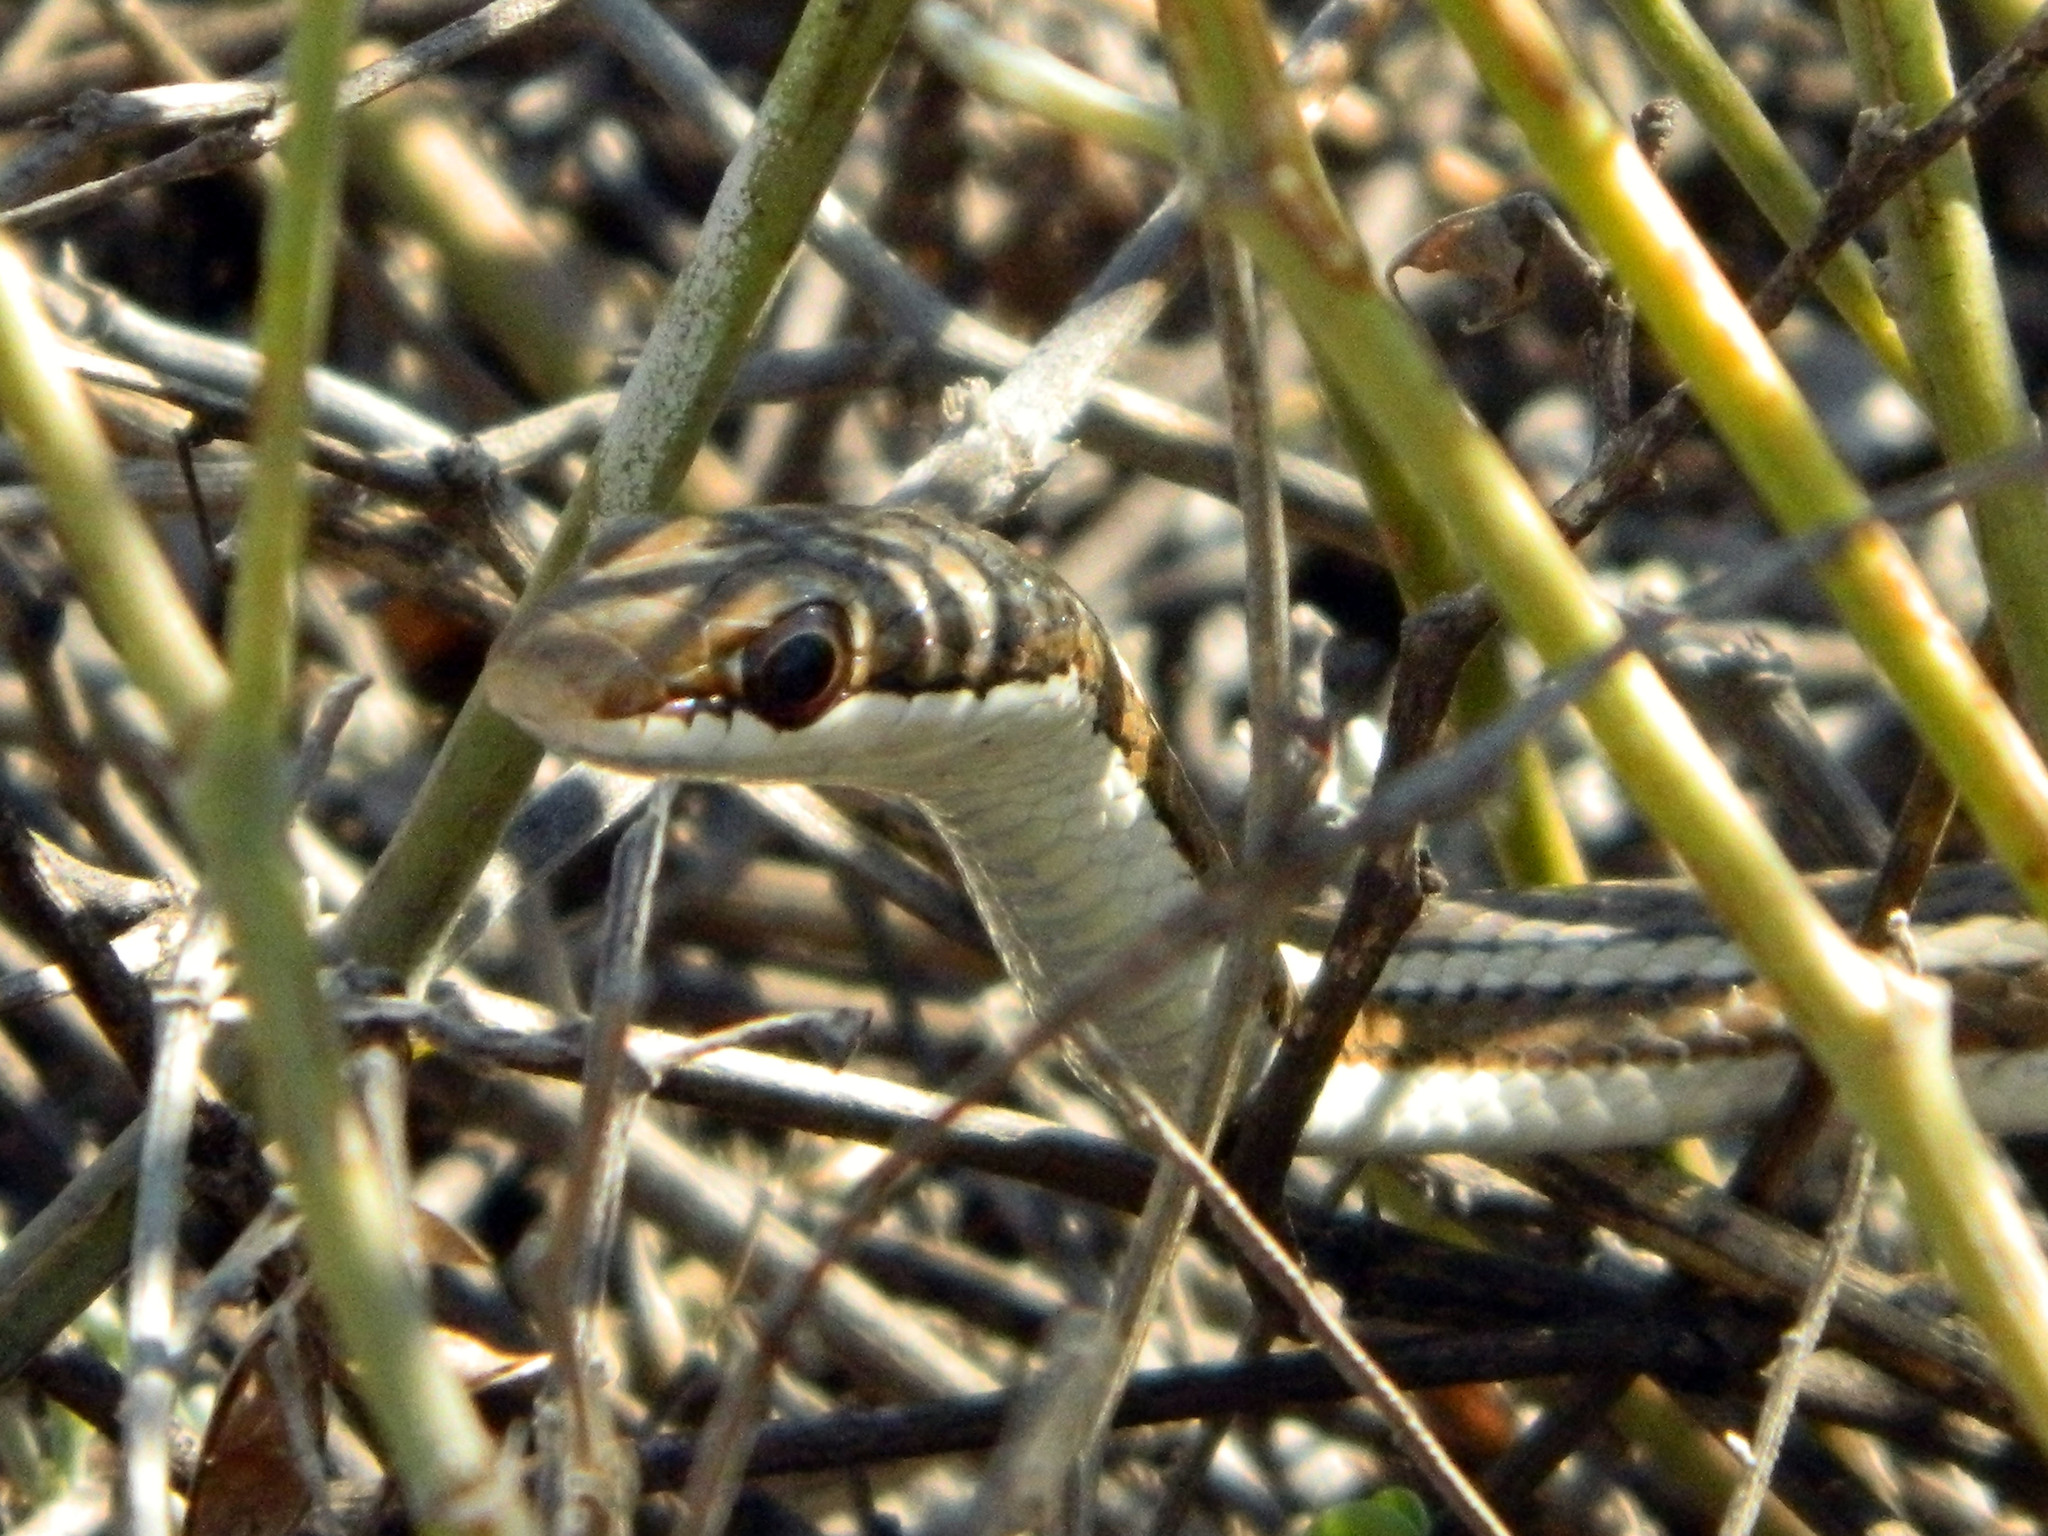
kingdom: Animalia
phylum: Chordata
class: Squamata
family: Pseudoxyrhophiidae
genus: Dromicodryas
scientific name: Dromicodryas bernieri
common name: Bernier's striped snake
